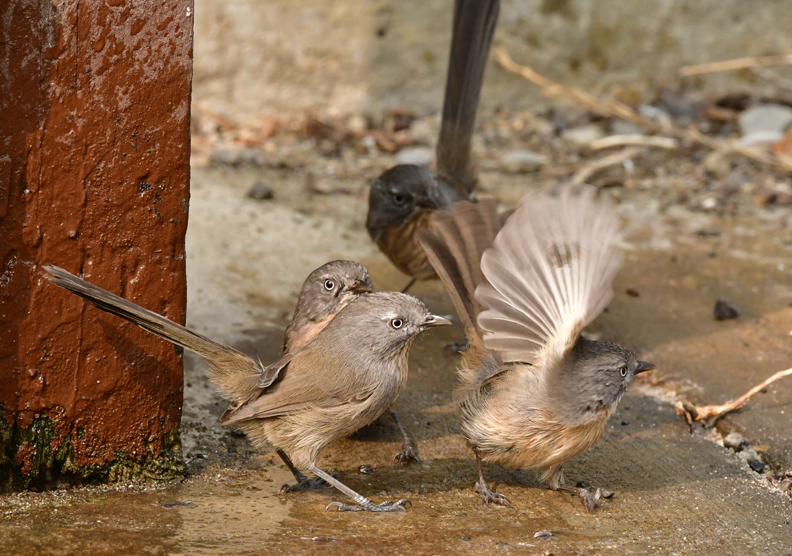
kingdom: Animalia
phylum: Chordata
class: Aves
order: Passeriformes
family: Sylviidae
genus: Chamaea
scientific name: Chamaea fasciata
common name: Wrentit
